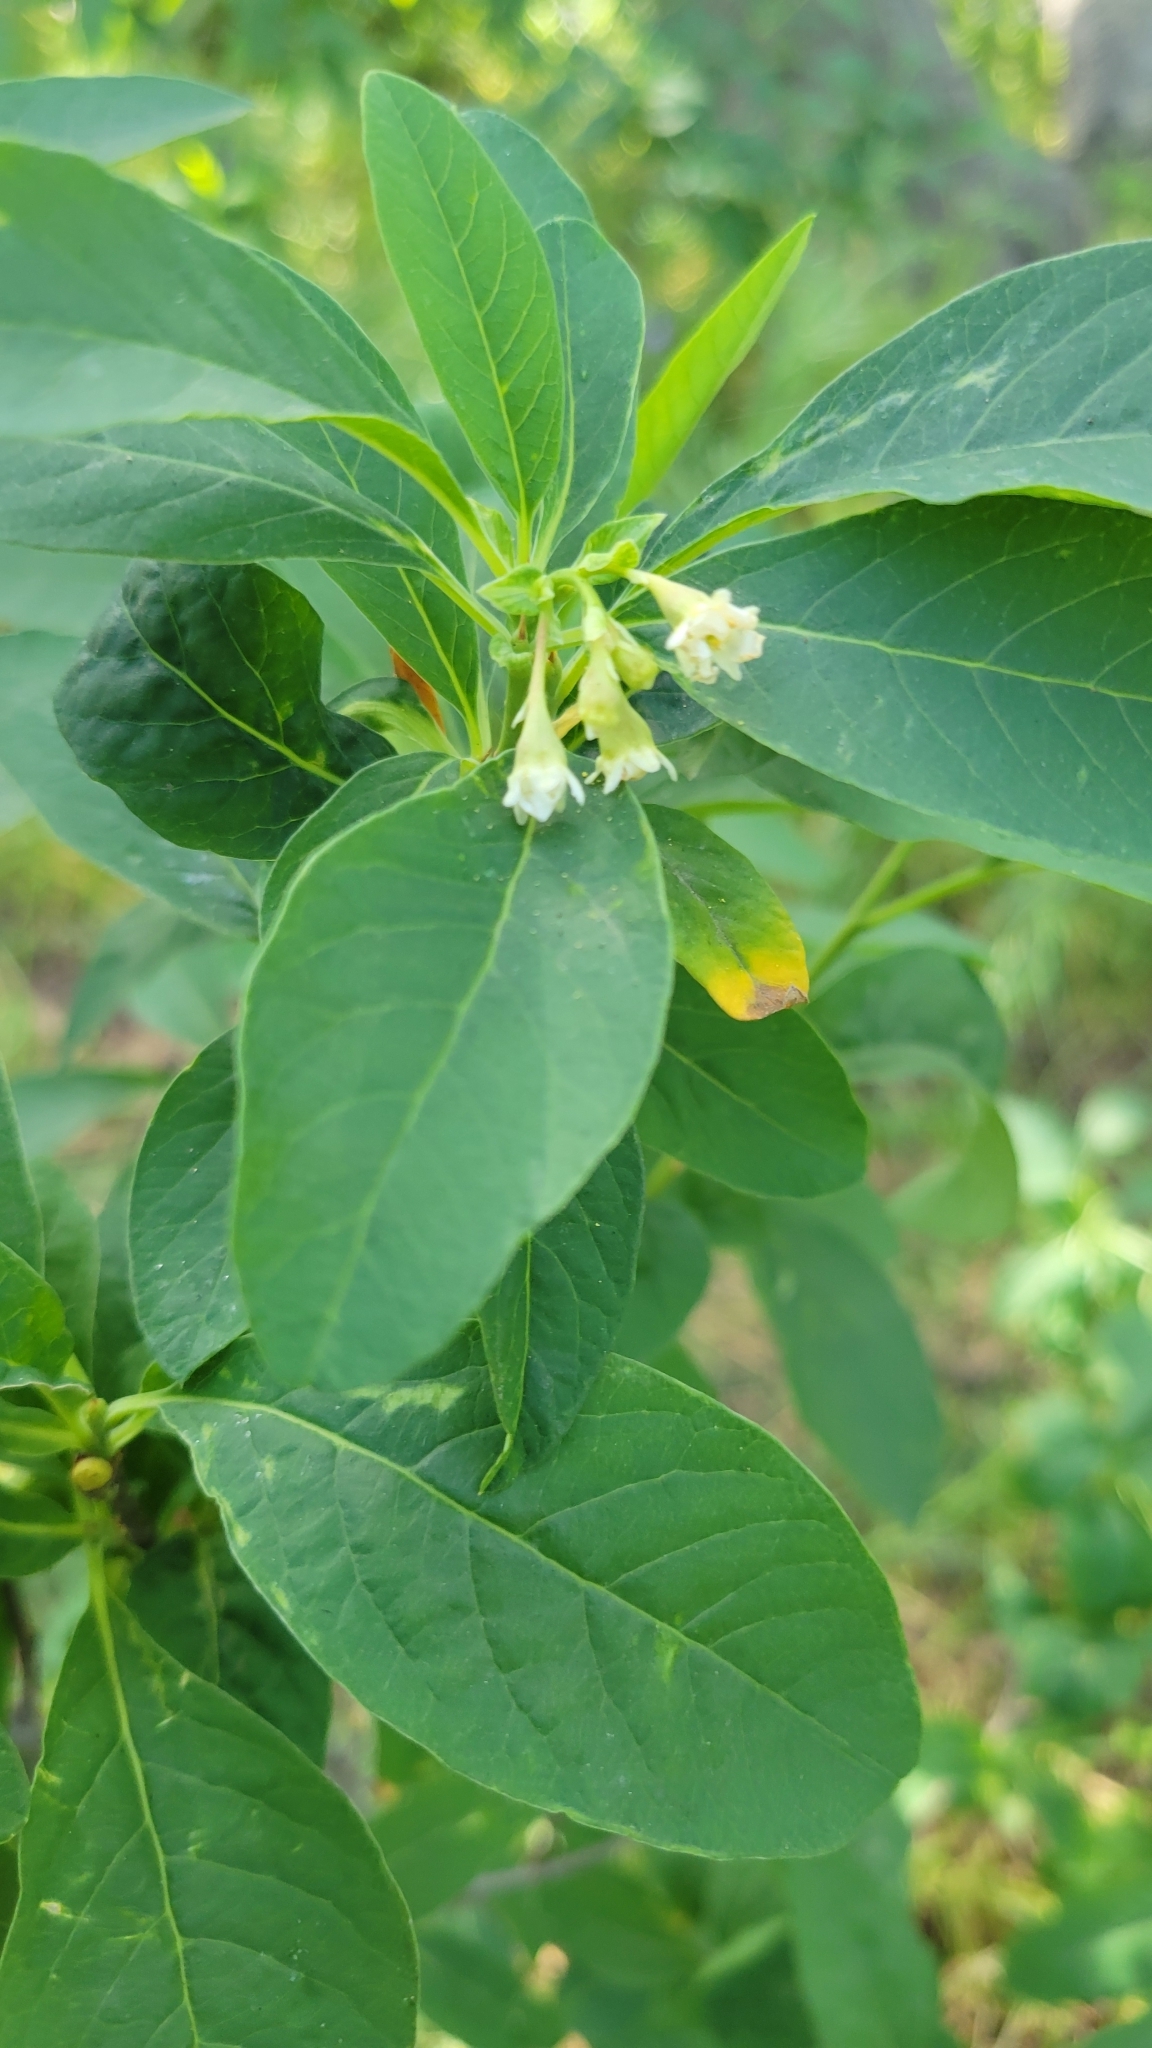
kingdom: Plantae
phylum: Tracheophyta
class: Magnoliopsida
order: Rosales
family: Rosaceae
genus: Oemleria
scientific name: Oemleria cerasiformis
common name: Osoberry
